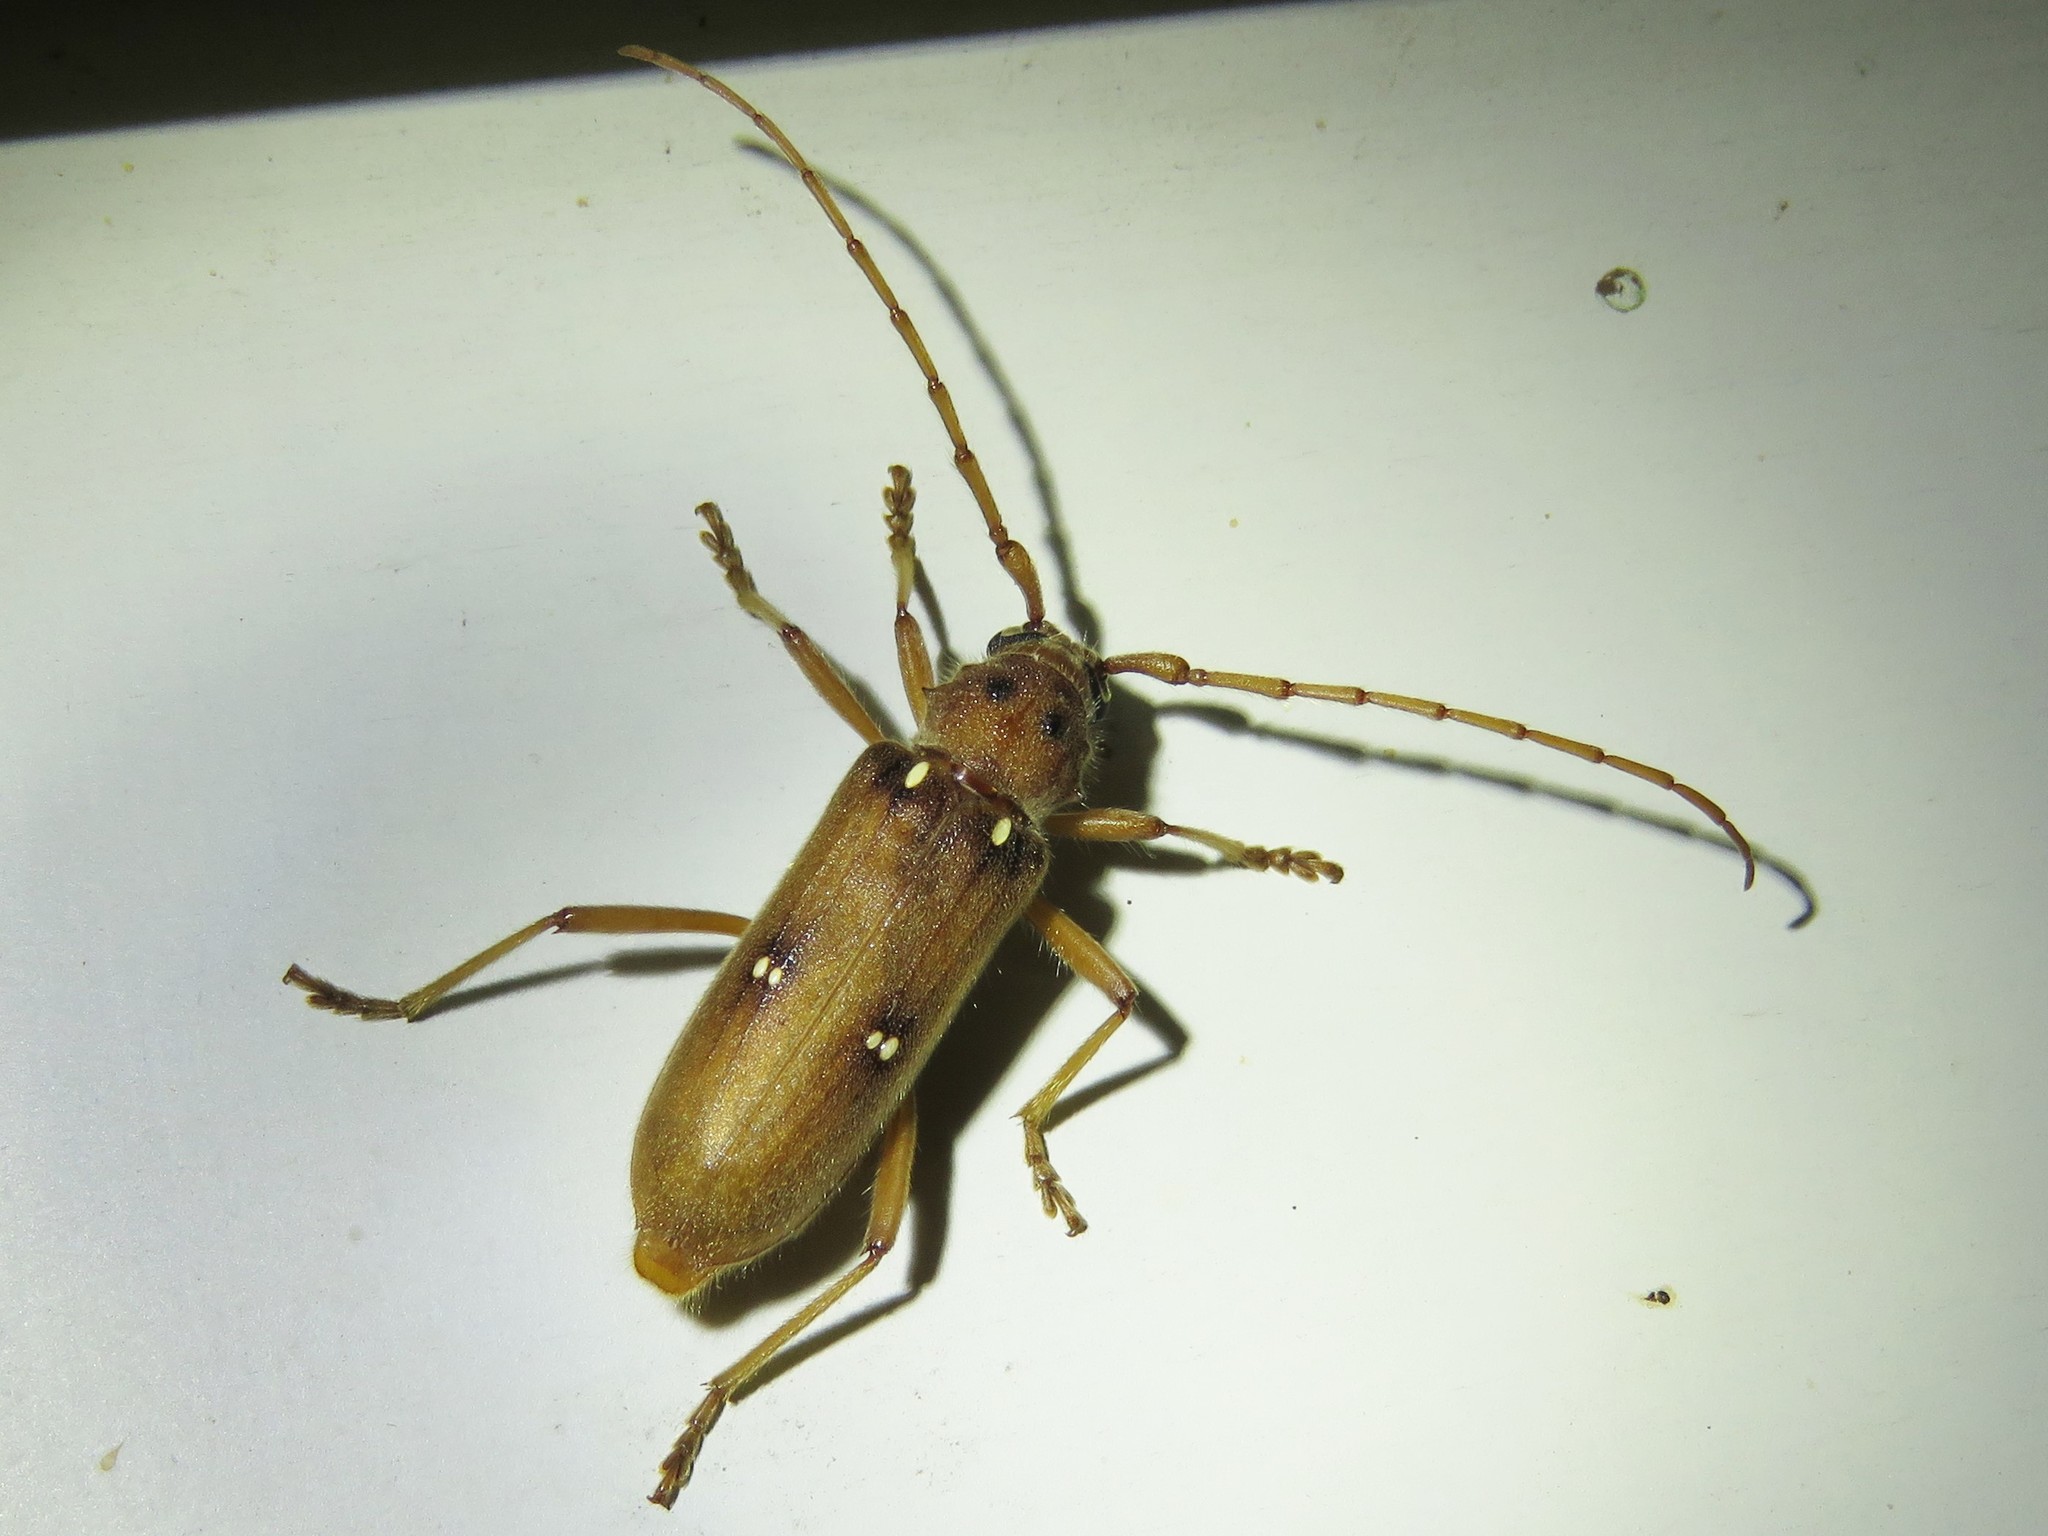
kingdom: Animalia
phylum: Arthropoda
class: Insecta
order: Coleoptera
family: Cerambycidae
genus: Eburia
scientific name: Eburia haldemani
